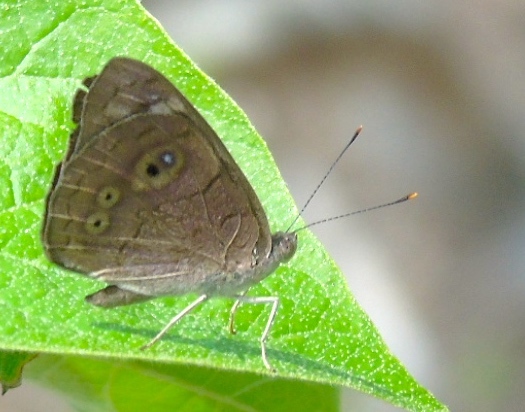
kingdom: Animalia
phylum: Arthropoda
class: Insecta
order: Lepidoptera
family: Nymphalidae
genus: Eunica
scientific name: Eunica monima
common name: Dingy purplewing
